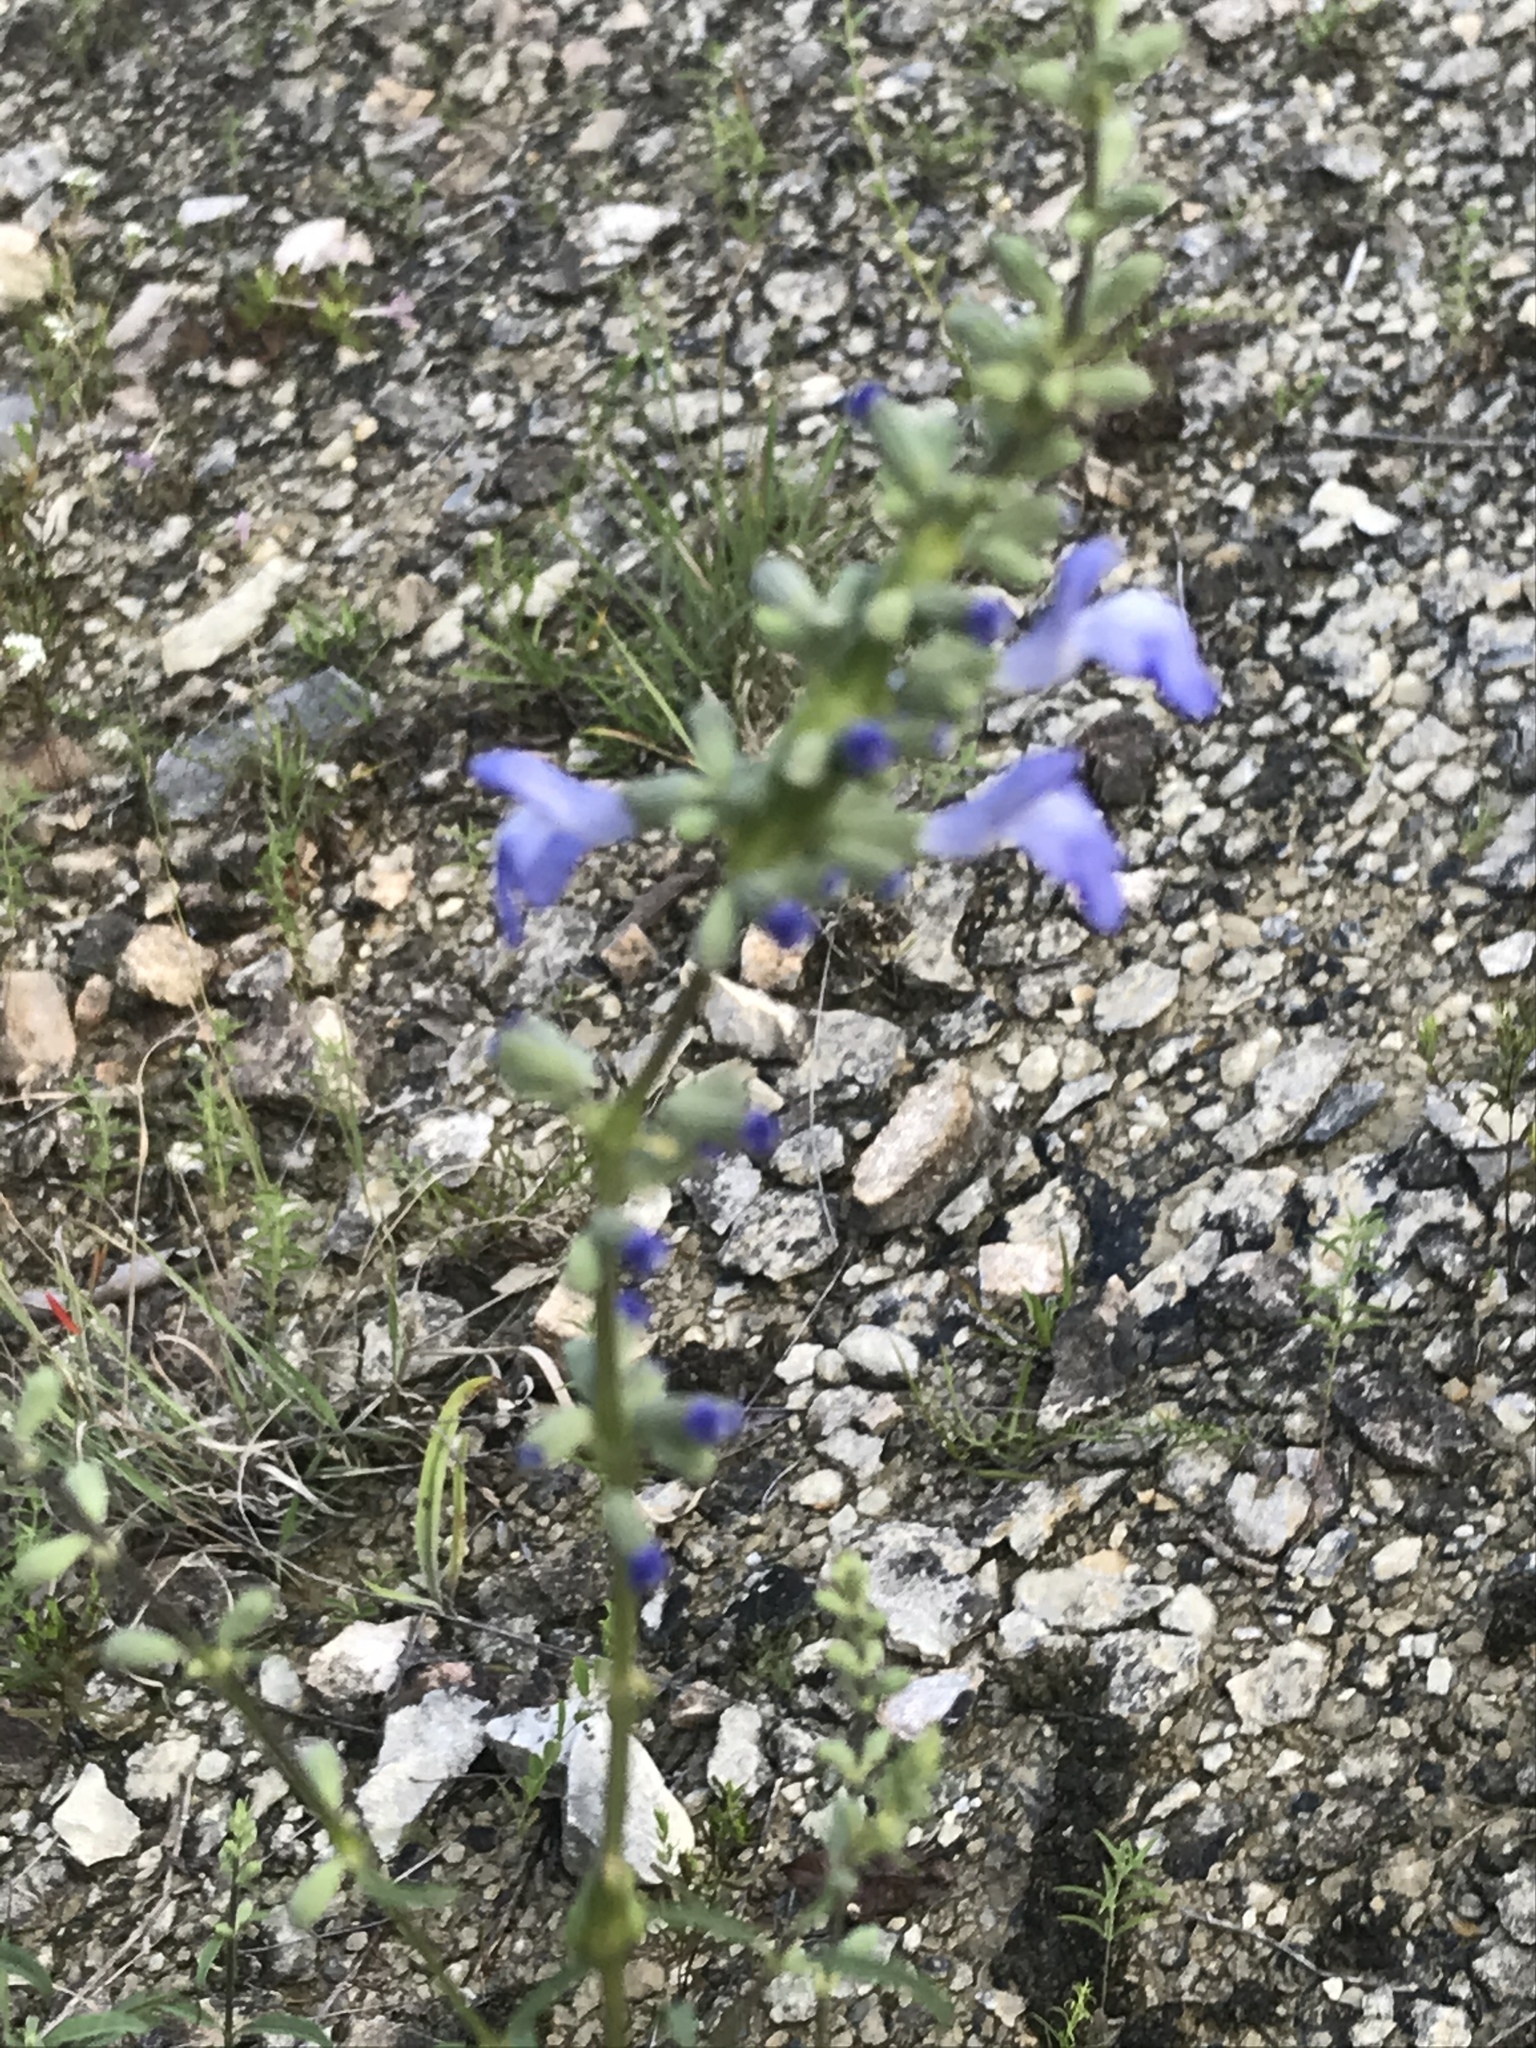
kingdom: Plantae
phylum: Tracheophyta
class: Magnoliopsida
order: Lamiales
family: Lamiaceae
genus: Salvia
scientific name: Salvia azurea
